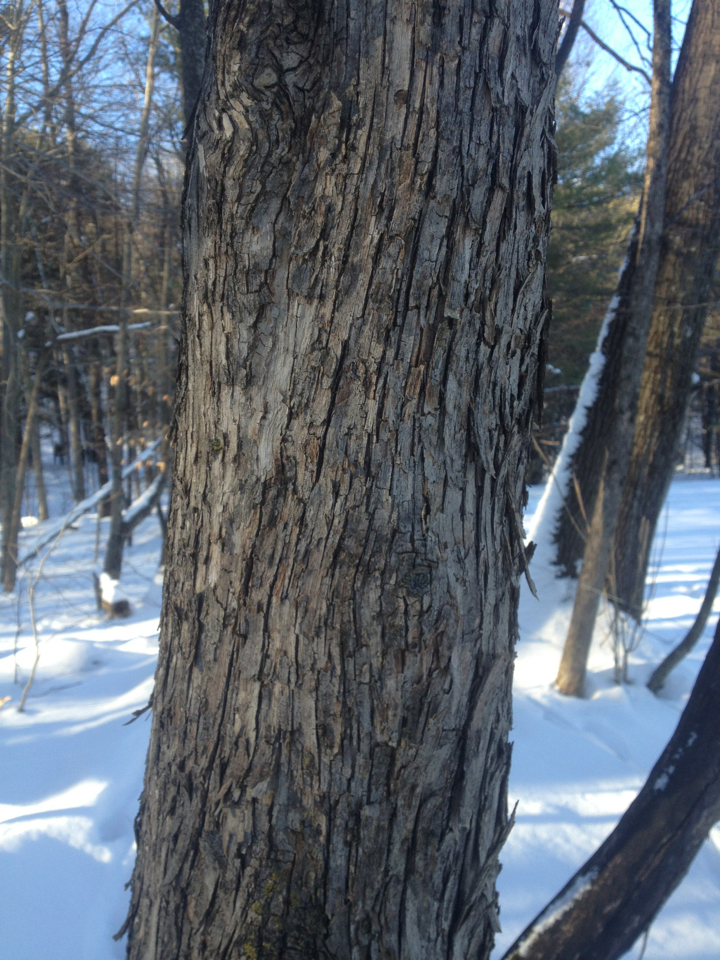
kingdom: Plantae
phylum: Tracheophyta
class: Magnoliopsida
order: Fagales
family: Betulaceae
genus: Ostrya
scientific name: Ostrya virginiana
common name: Ironwood
